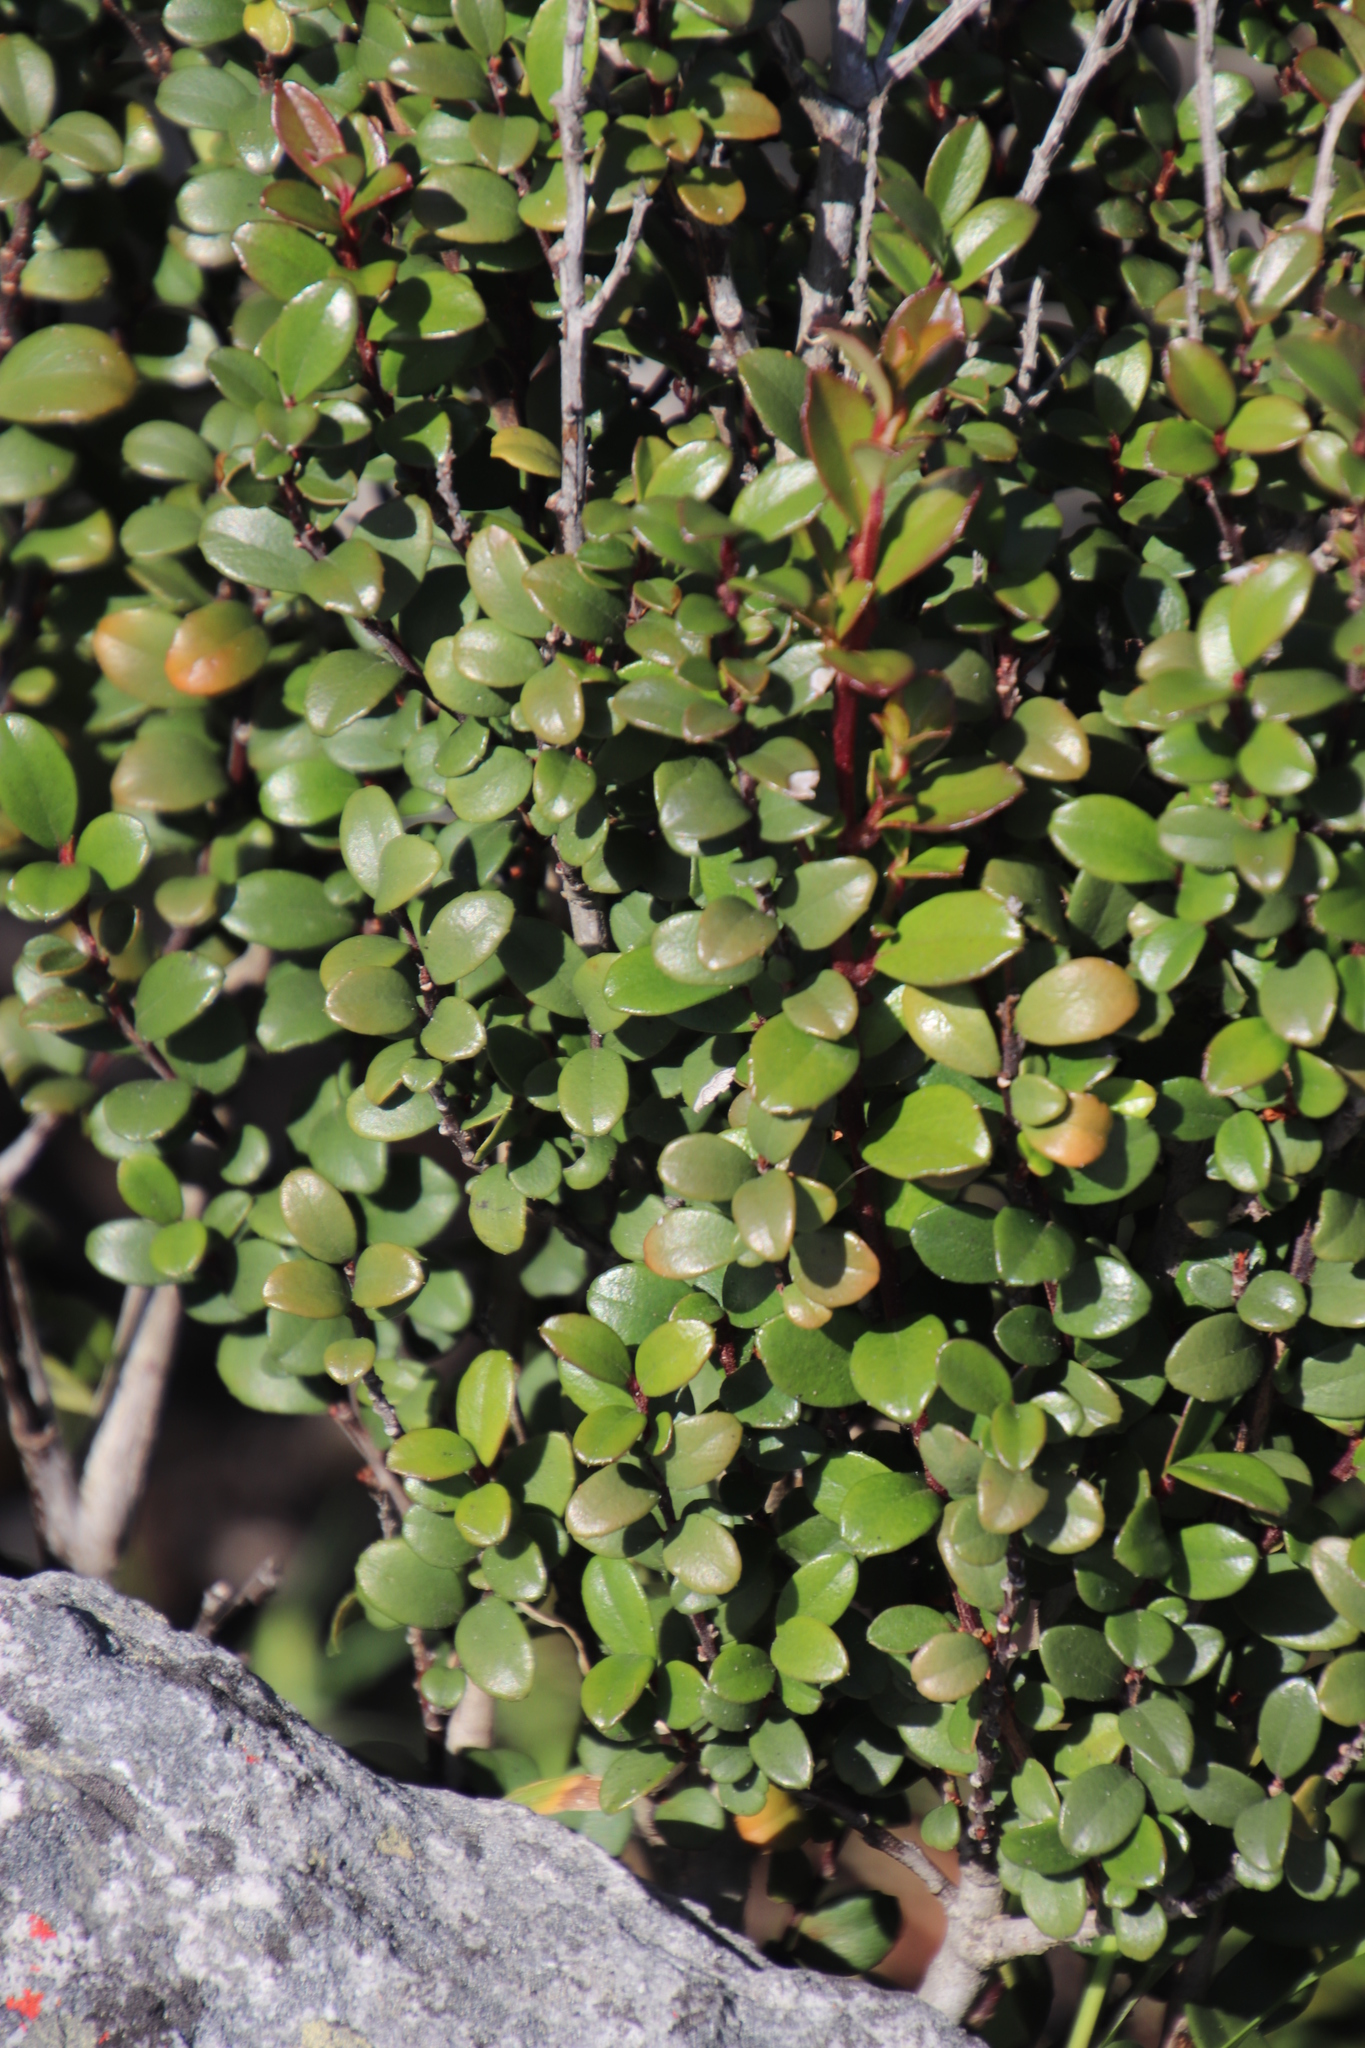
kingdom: Plantae
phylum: Tracheophyta
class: Magnoliopsida
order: Ericales
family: Primulaceae
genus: Myrsine
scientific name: Myrsine africana
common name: African-boxwood
